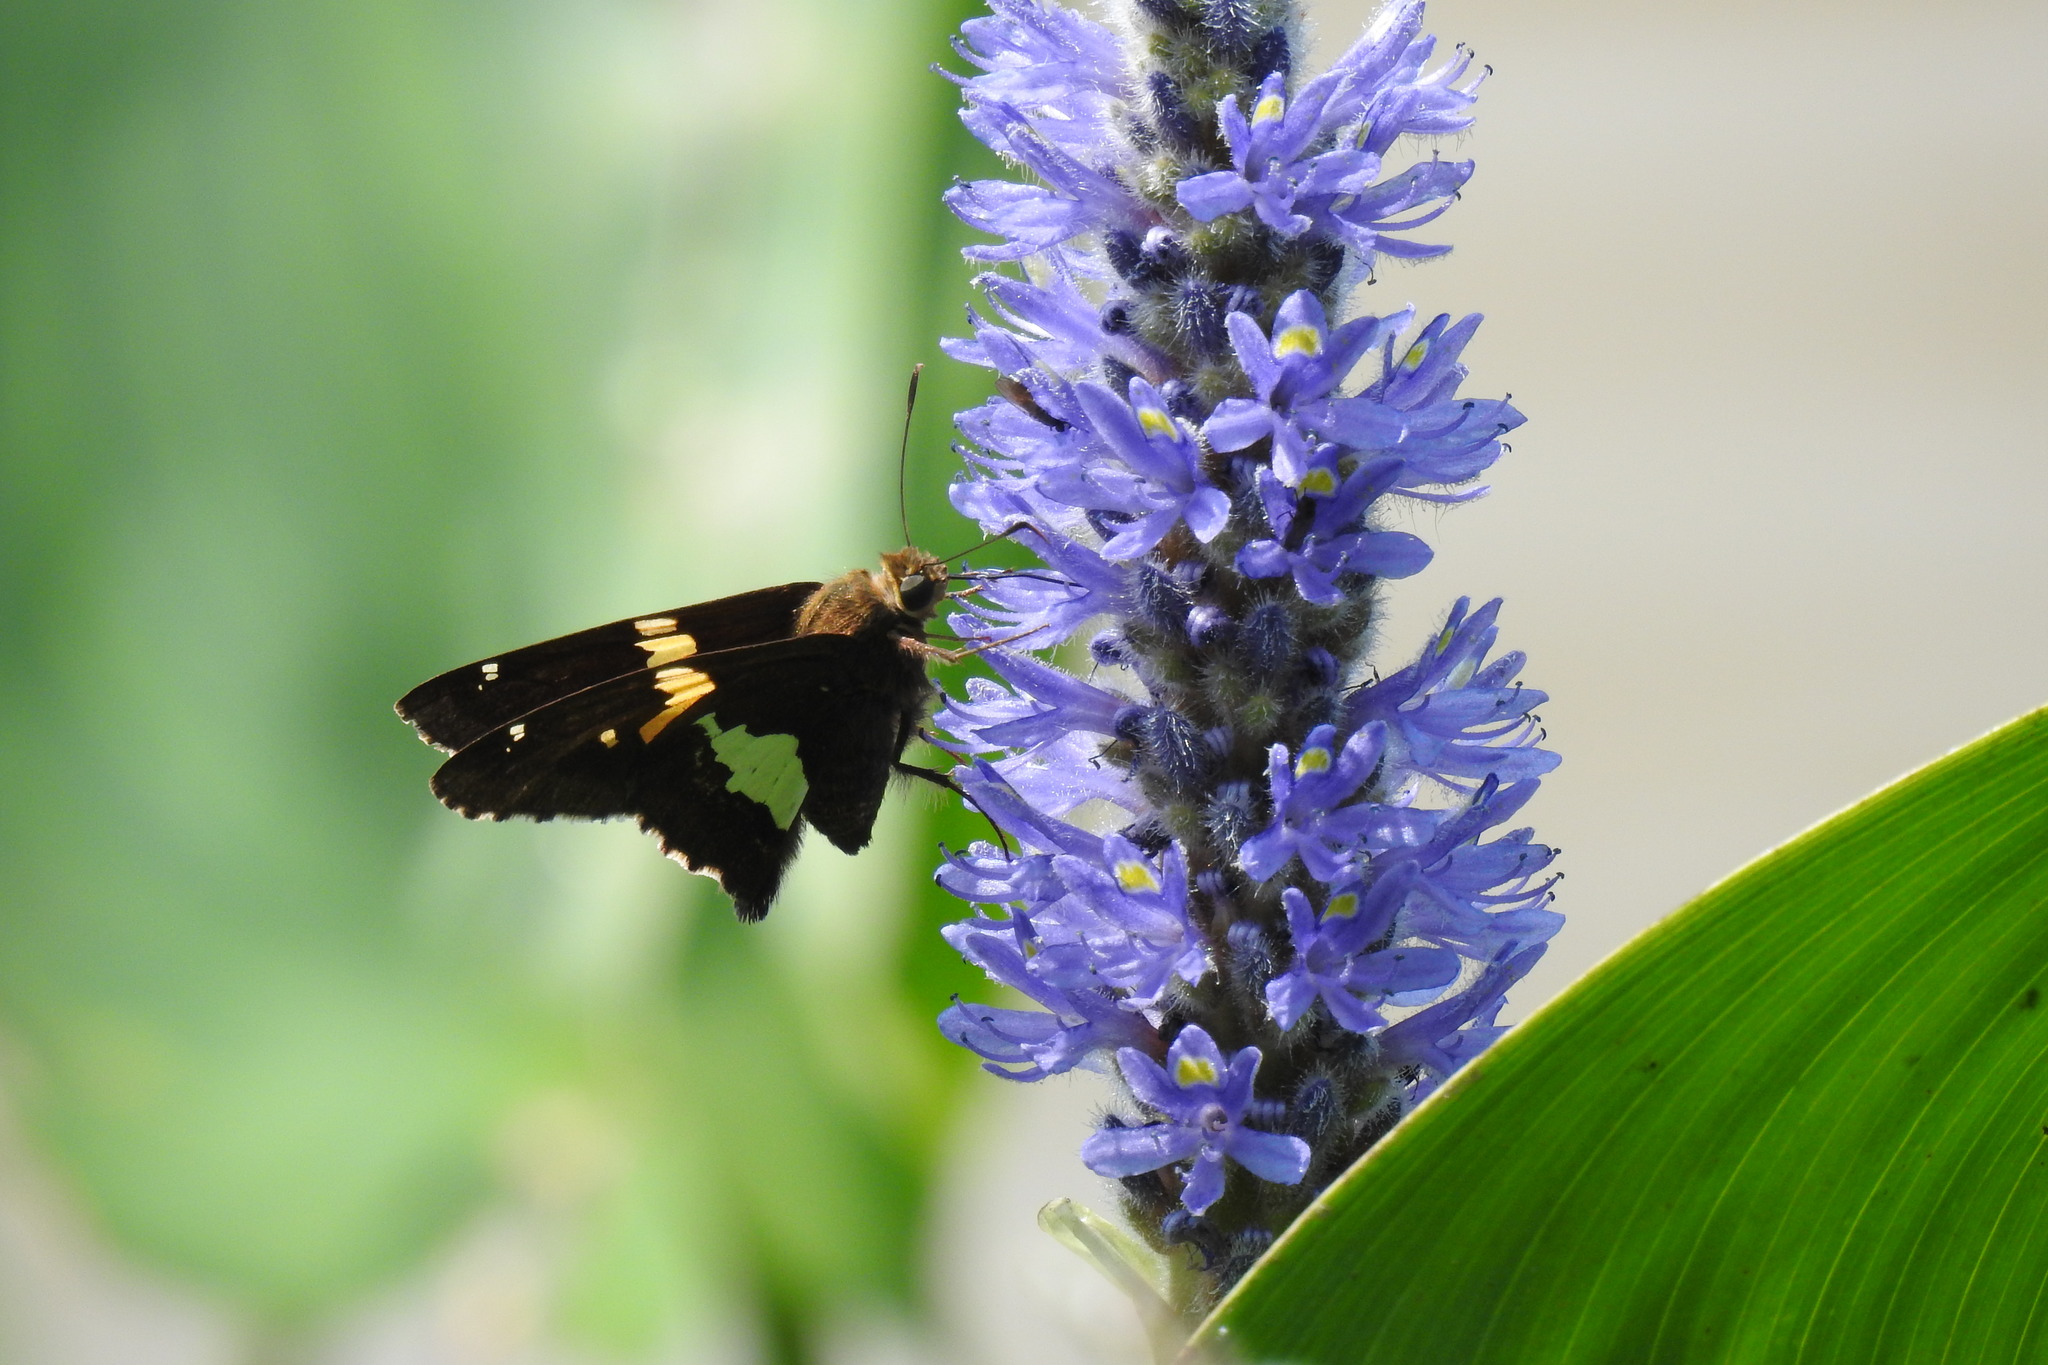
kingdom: Animalia
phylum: Arthropoda
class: Insecta
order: Lepidoptera
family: Hesperiidae
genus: Epargyreus
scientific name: Epargyreus clarus
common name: Silver-spotted skipper
